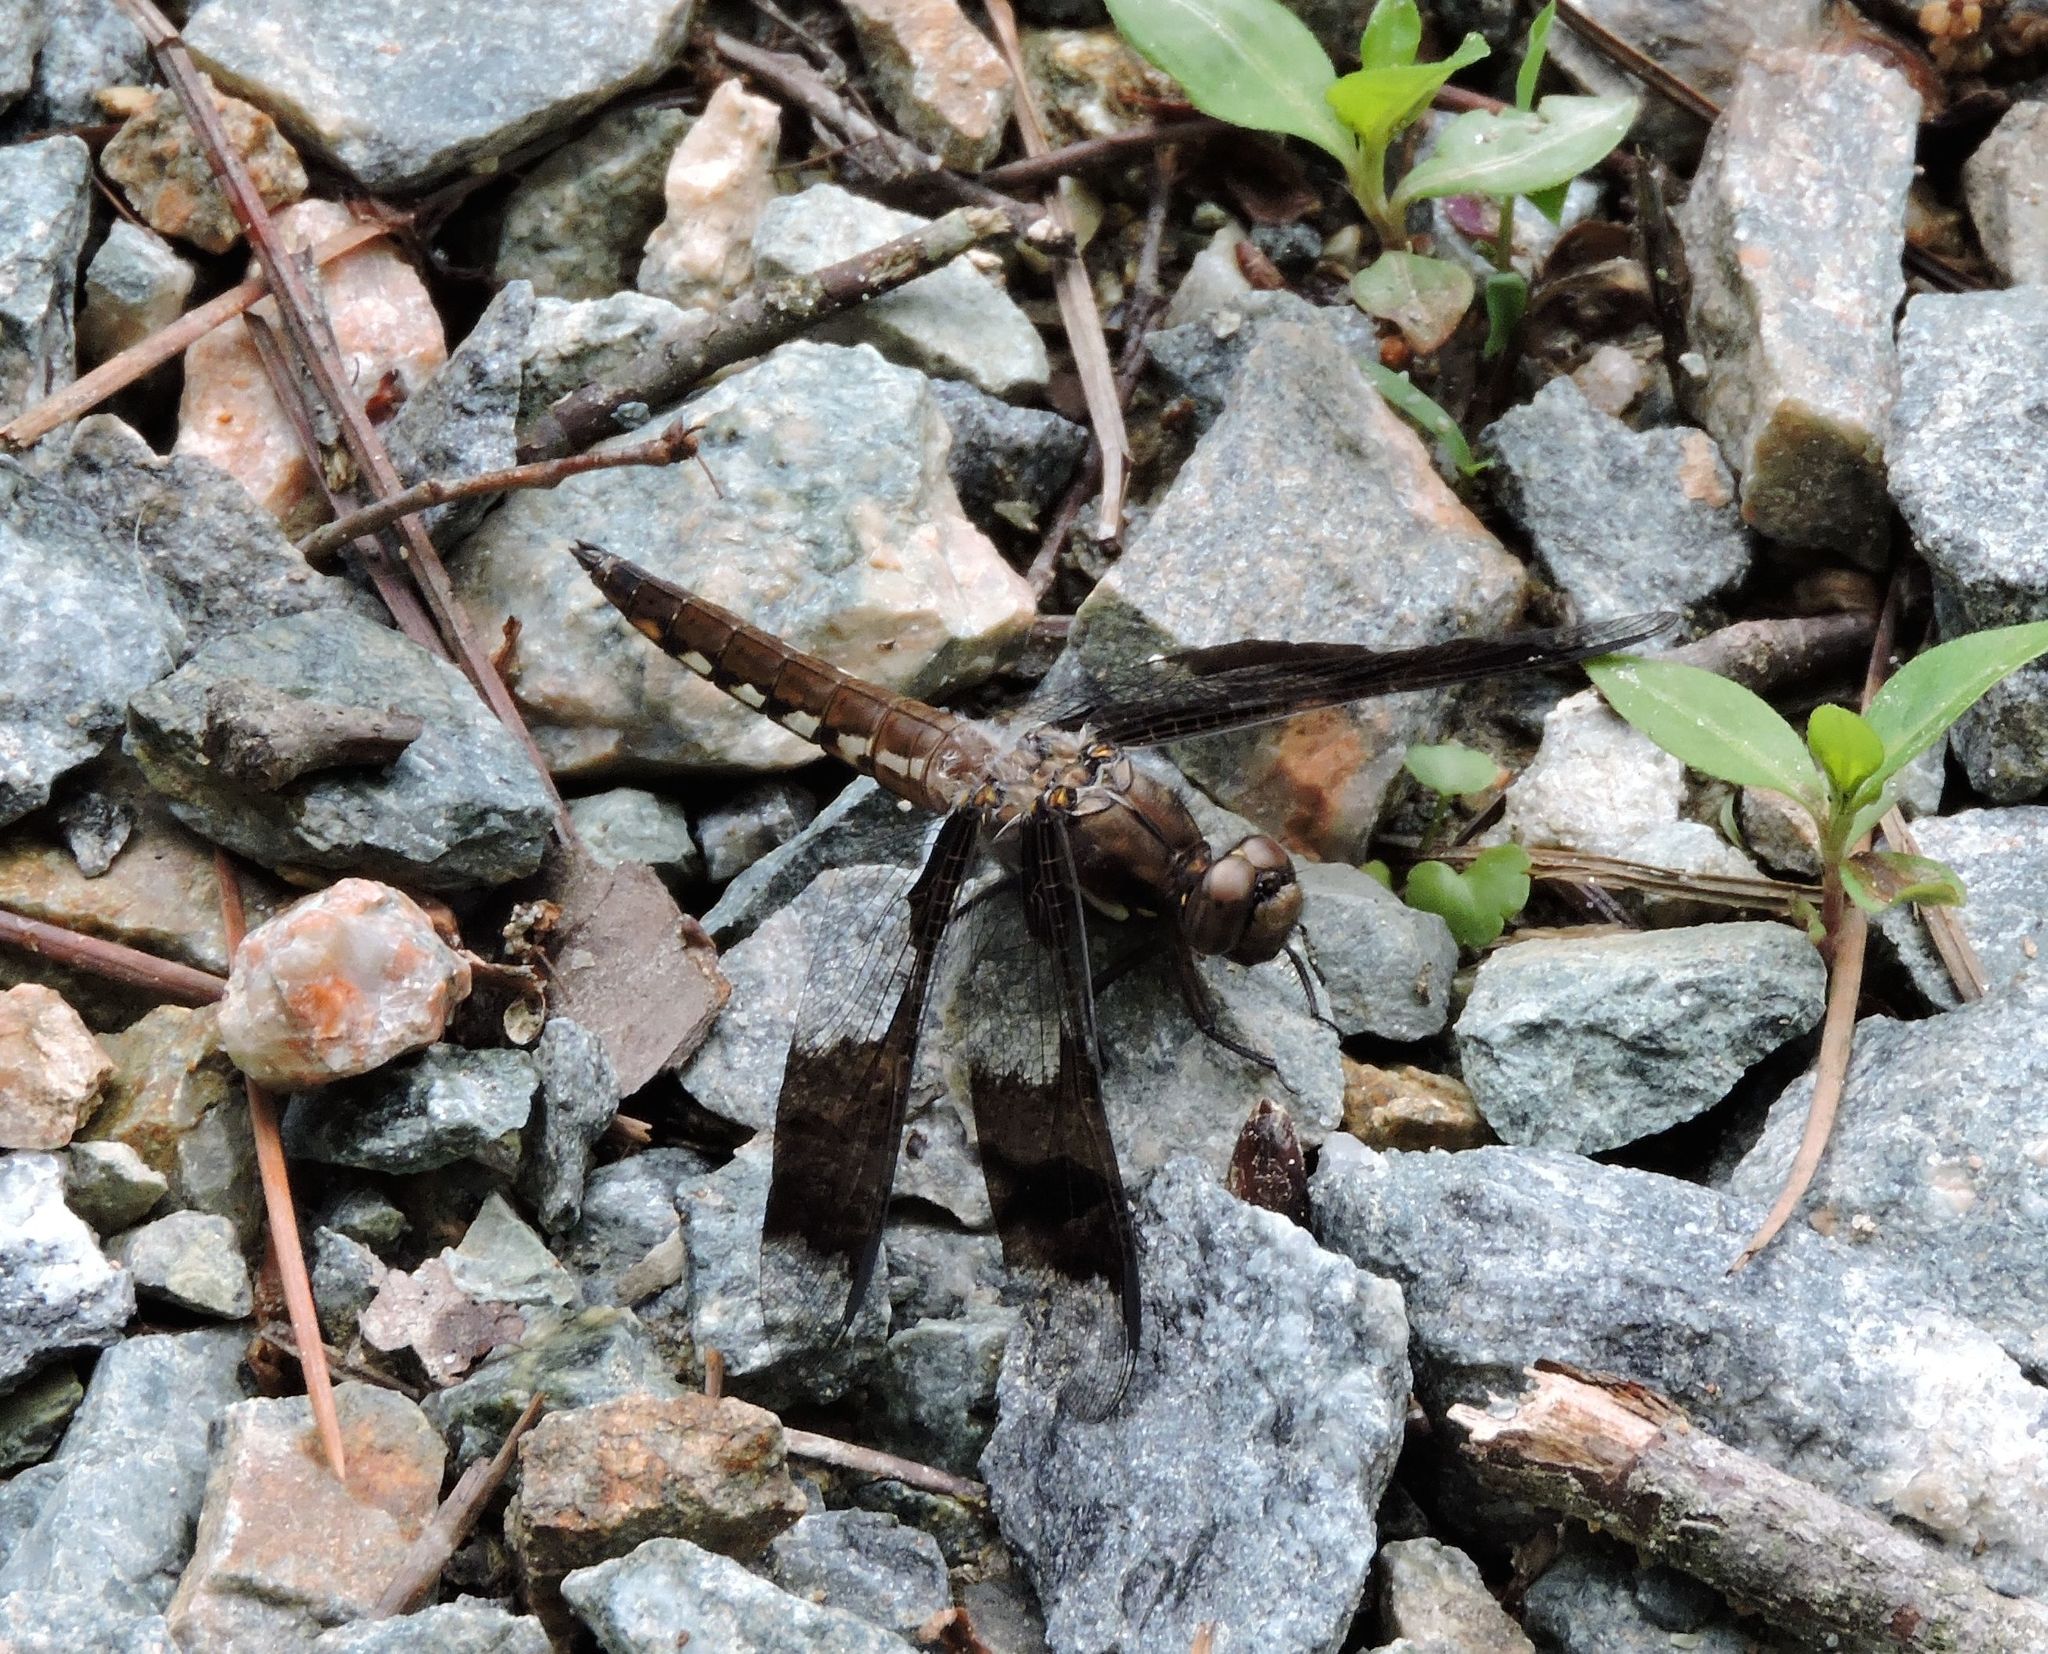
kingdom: Animalia
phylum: Arthropoda
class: Insecta
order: Odonata
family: Libellulidae
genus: Plathemis
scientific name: Plathemis lydia
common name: Common whitetail
